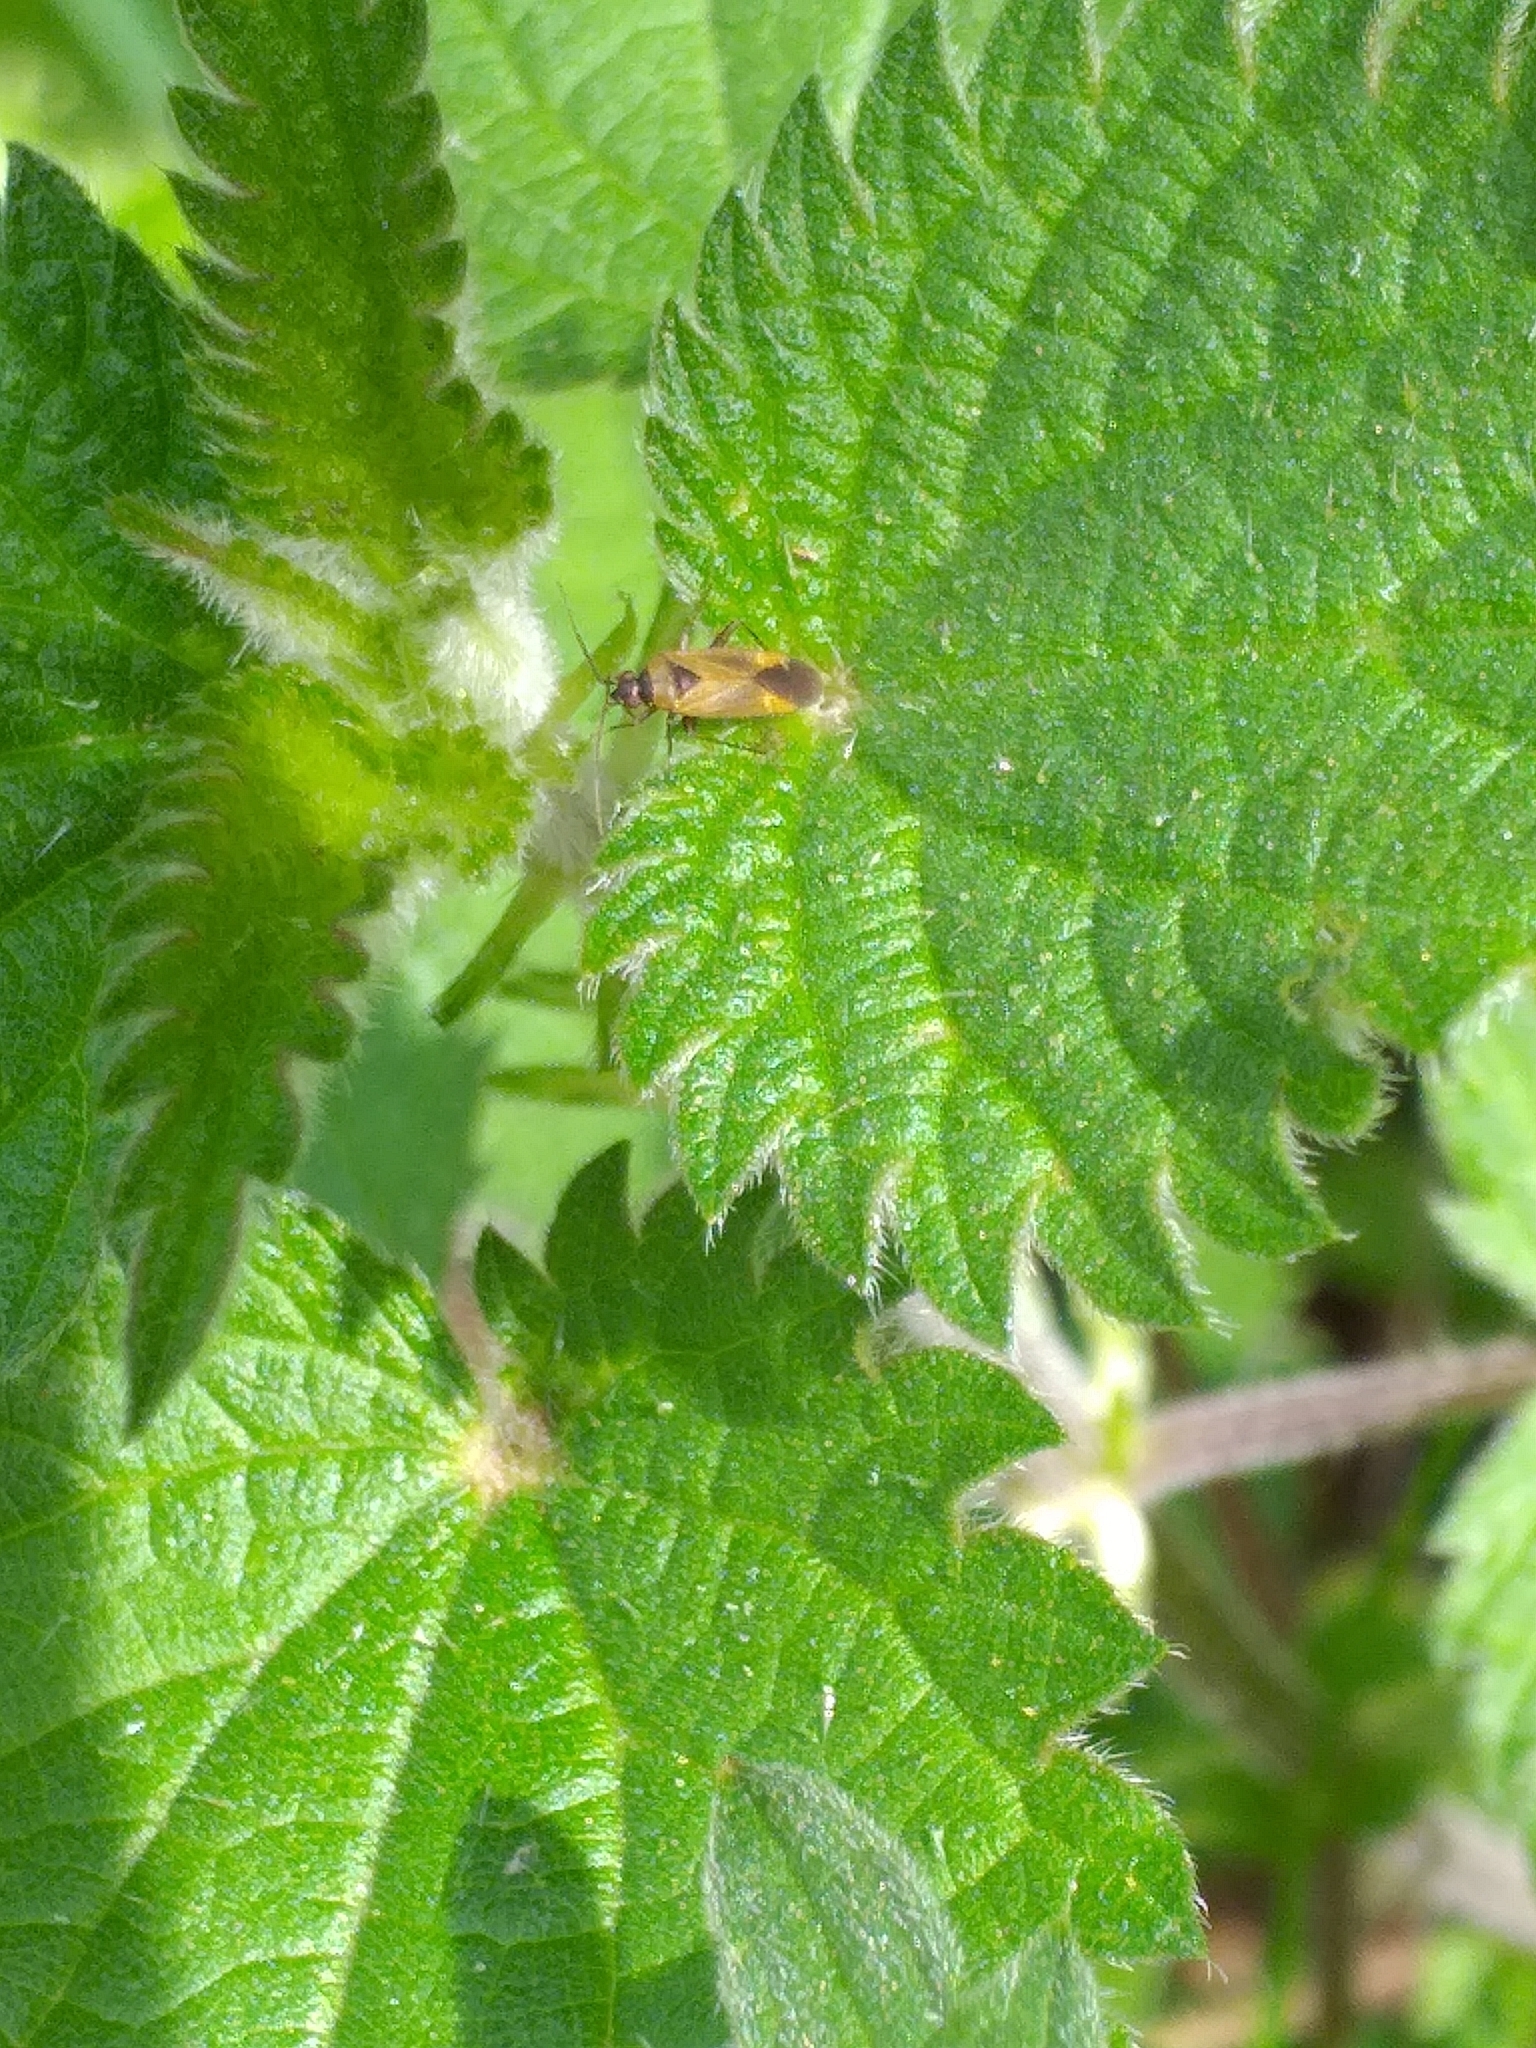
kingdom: Animalia
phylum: Arthropoda
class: Insecta
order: Hemiptera
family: Miridae
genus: Plagiognathus
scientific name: Plagiognathus arbustorum
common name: Plant bug
